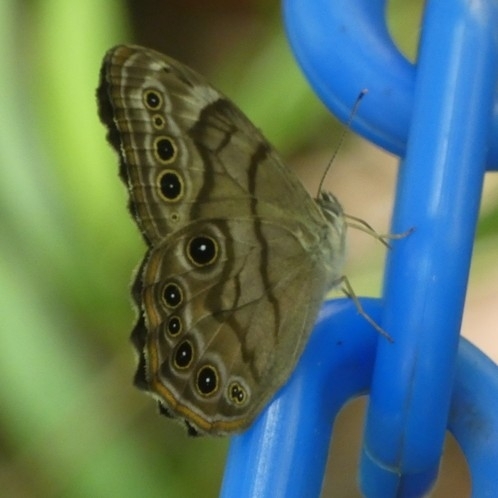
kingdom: Animalia
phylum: Arthropoda
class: Insecta
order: Lepidoptera
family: Nymphalidae
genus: Lethe
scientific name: Lethe anthedon
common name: Northern pearly-eye
